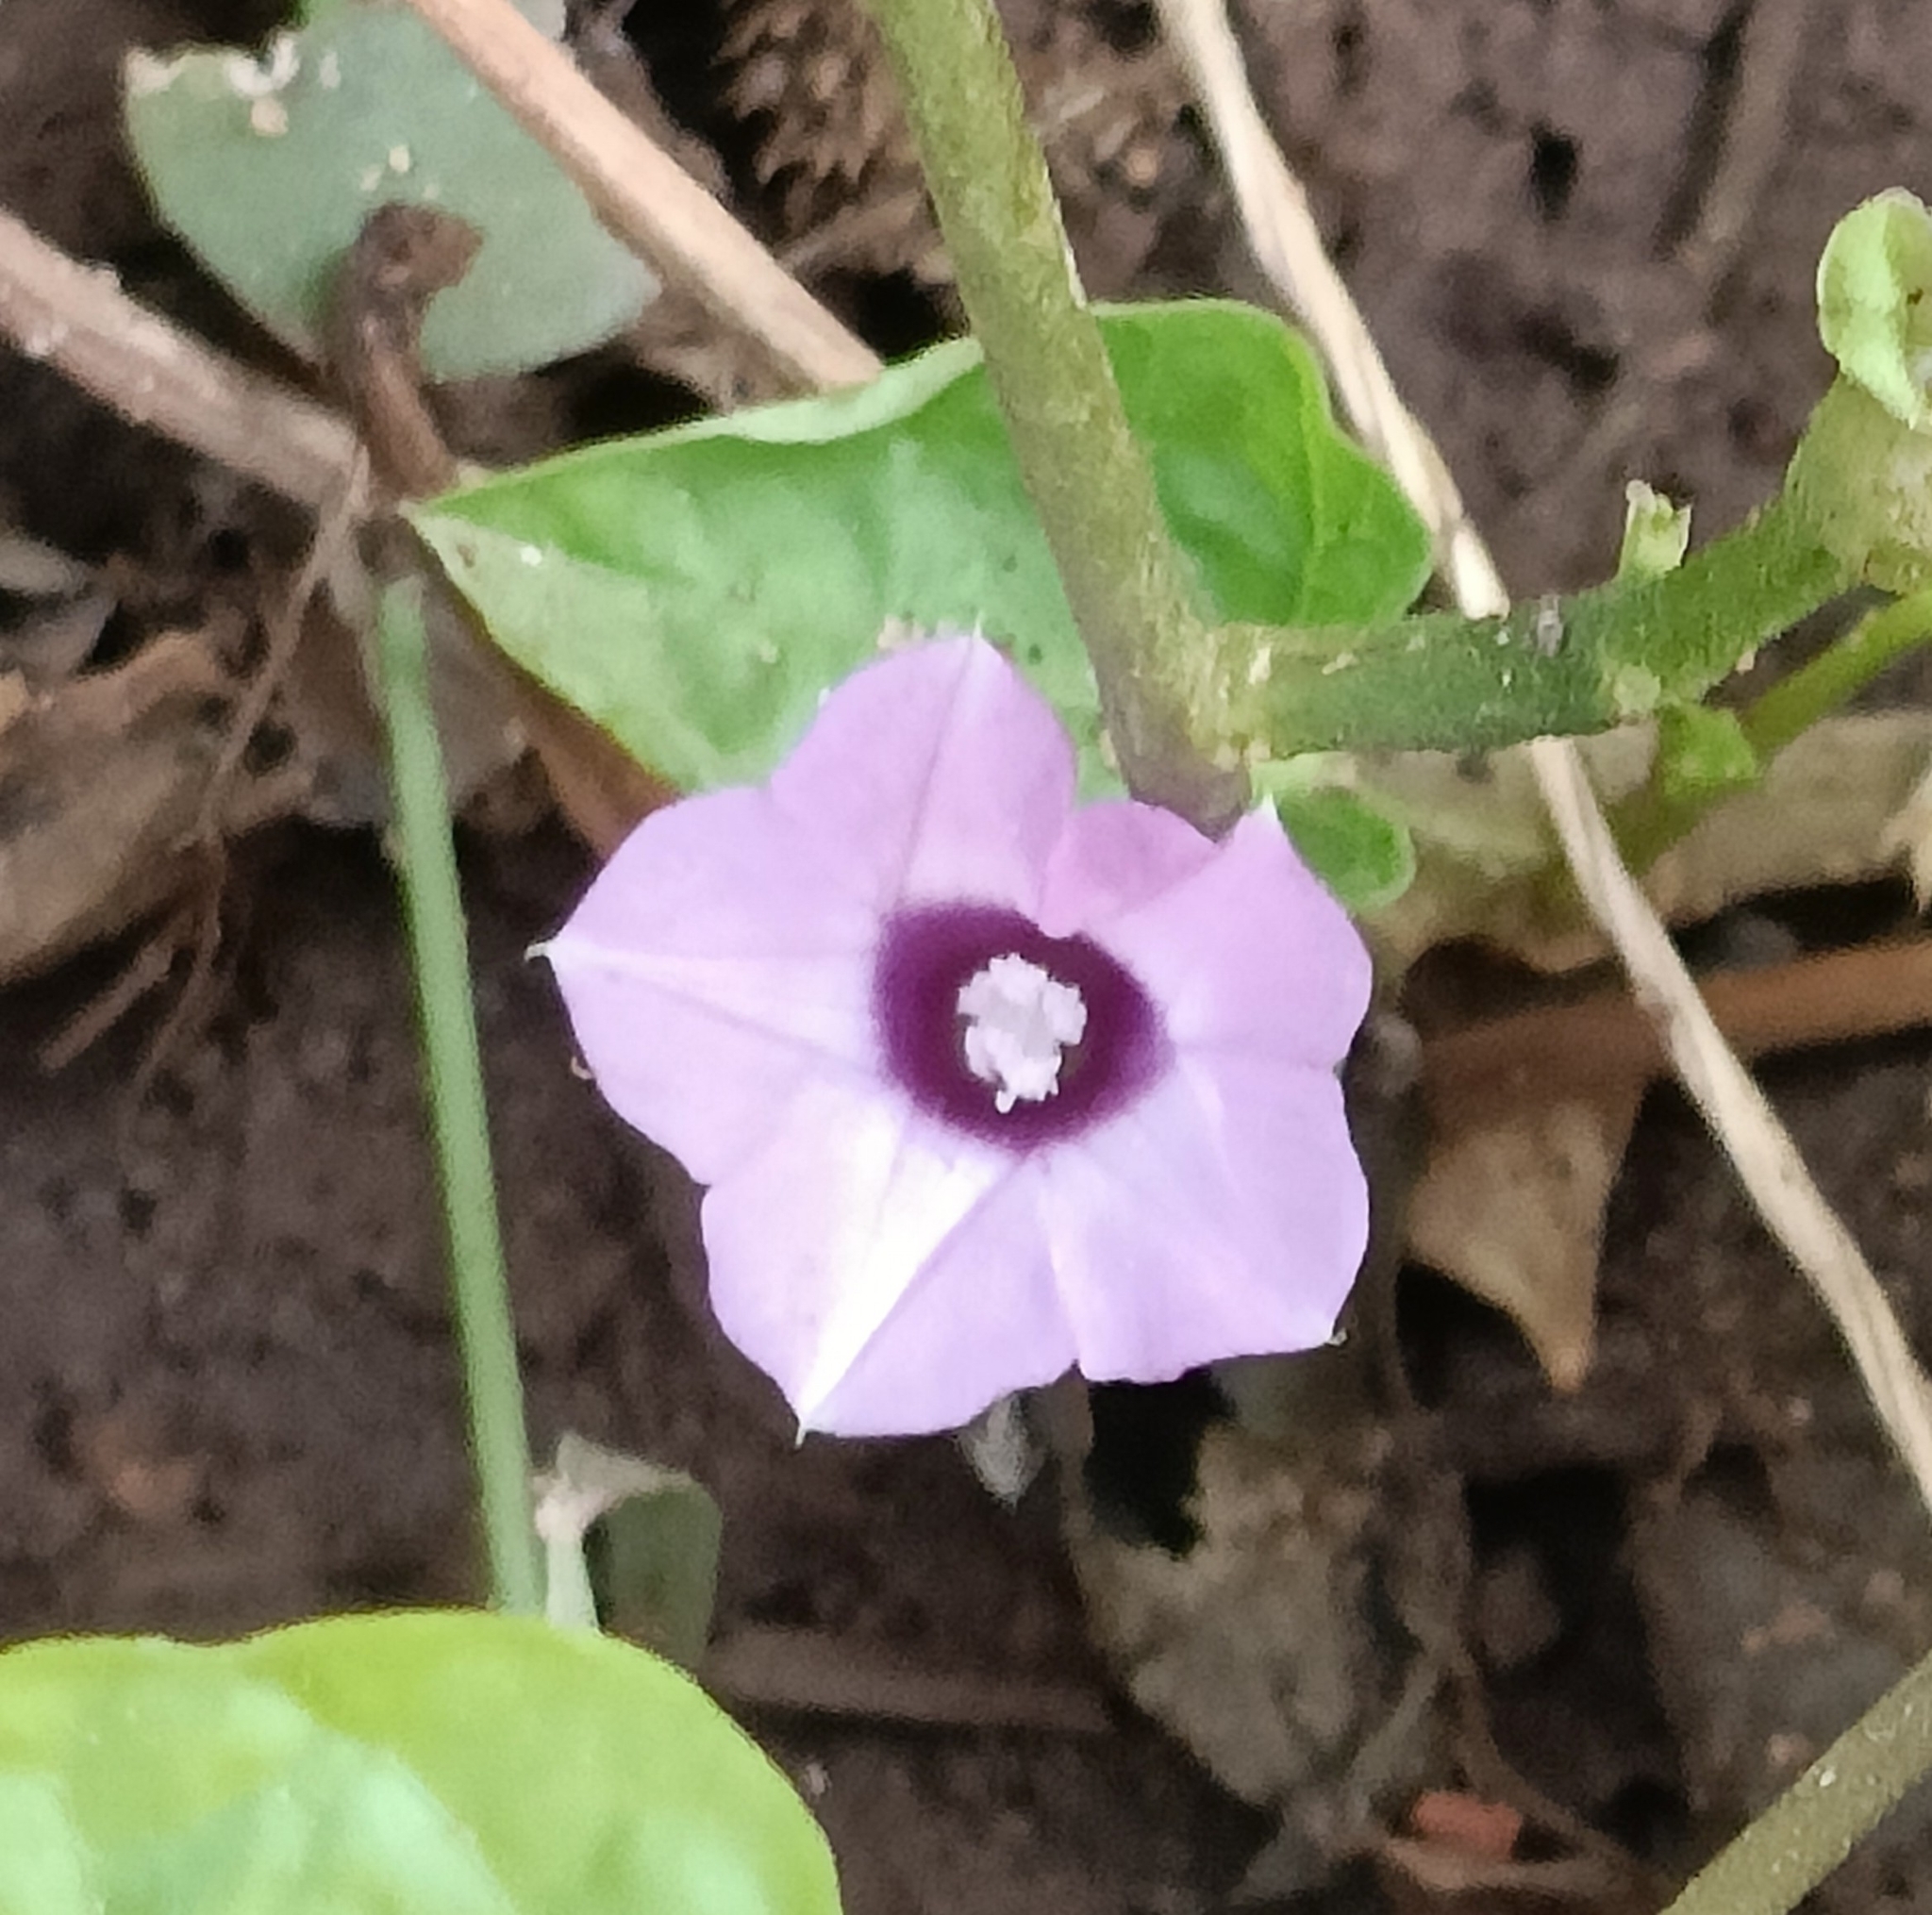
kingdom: Plantae
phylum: Tracheophyta
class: Magnoliopsida
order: Solanales
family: Convolvulaceae
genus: Ipomoea
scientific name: Ipomoea triloba
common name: Little-bell
